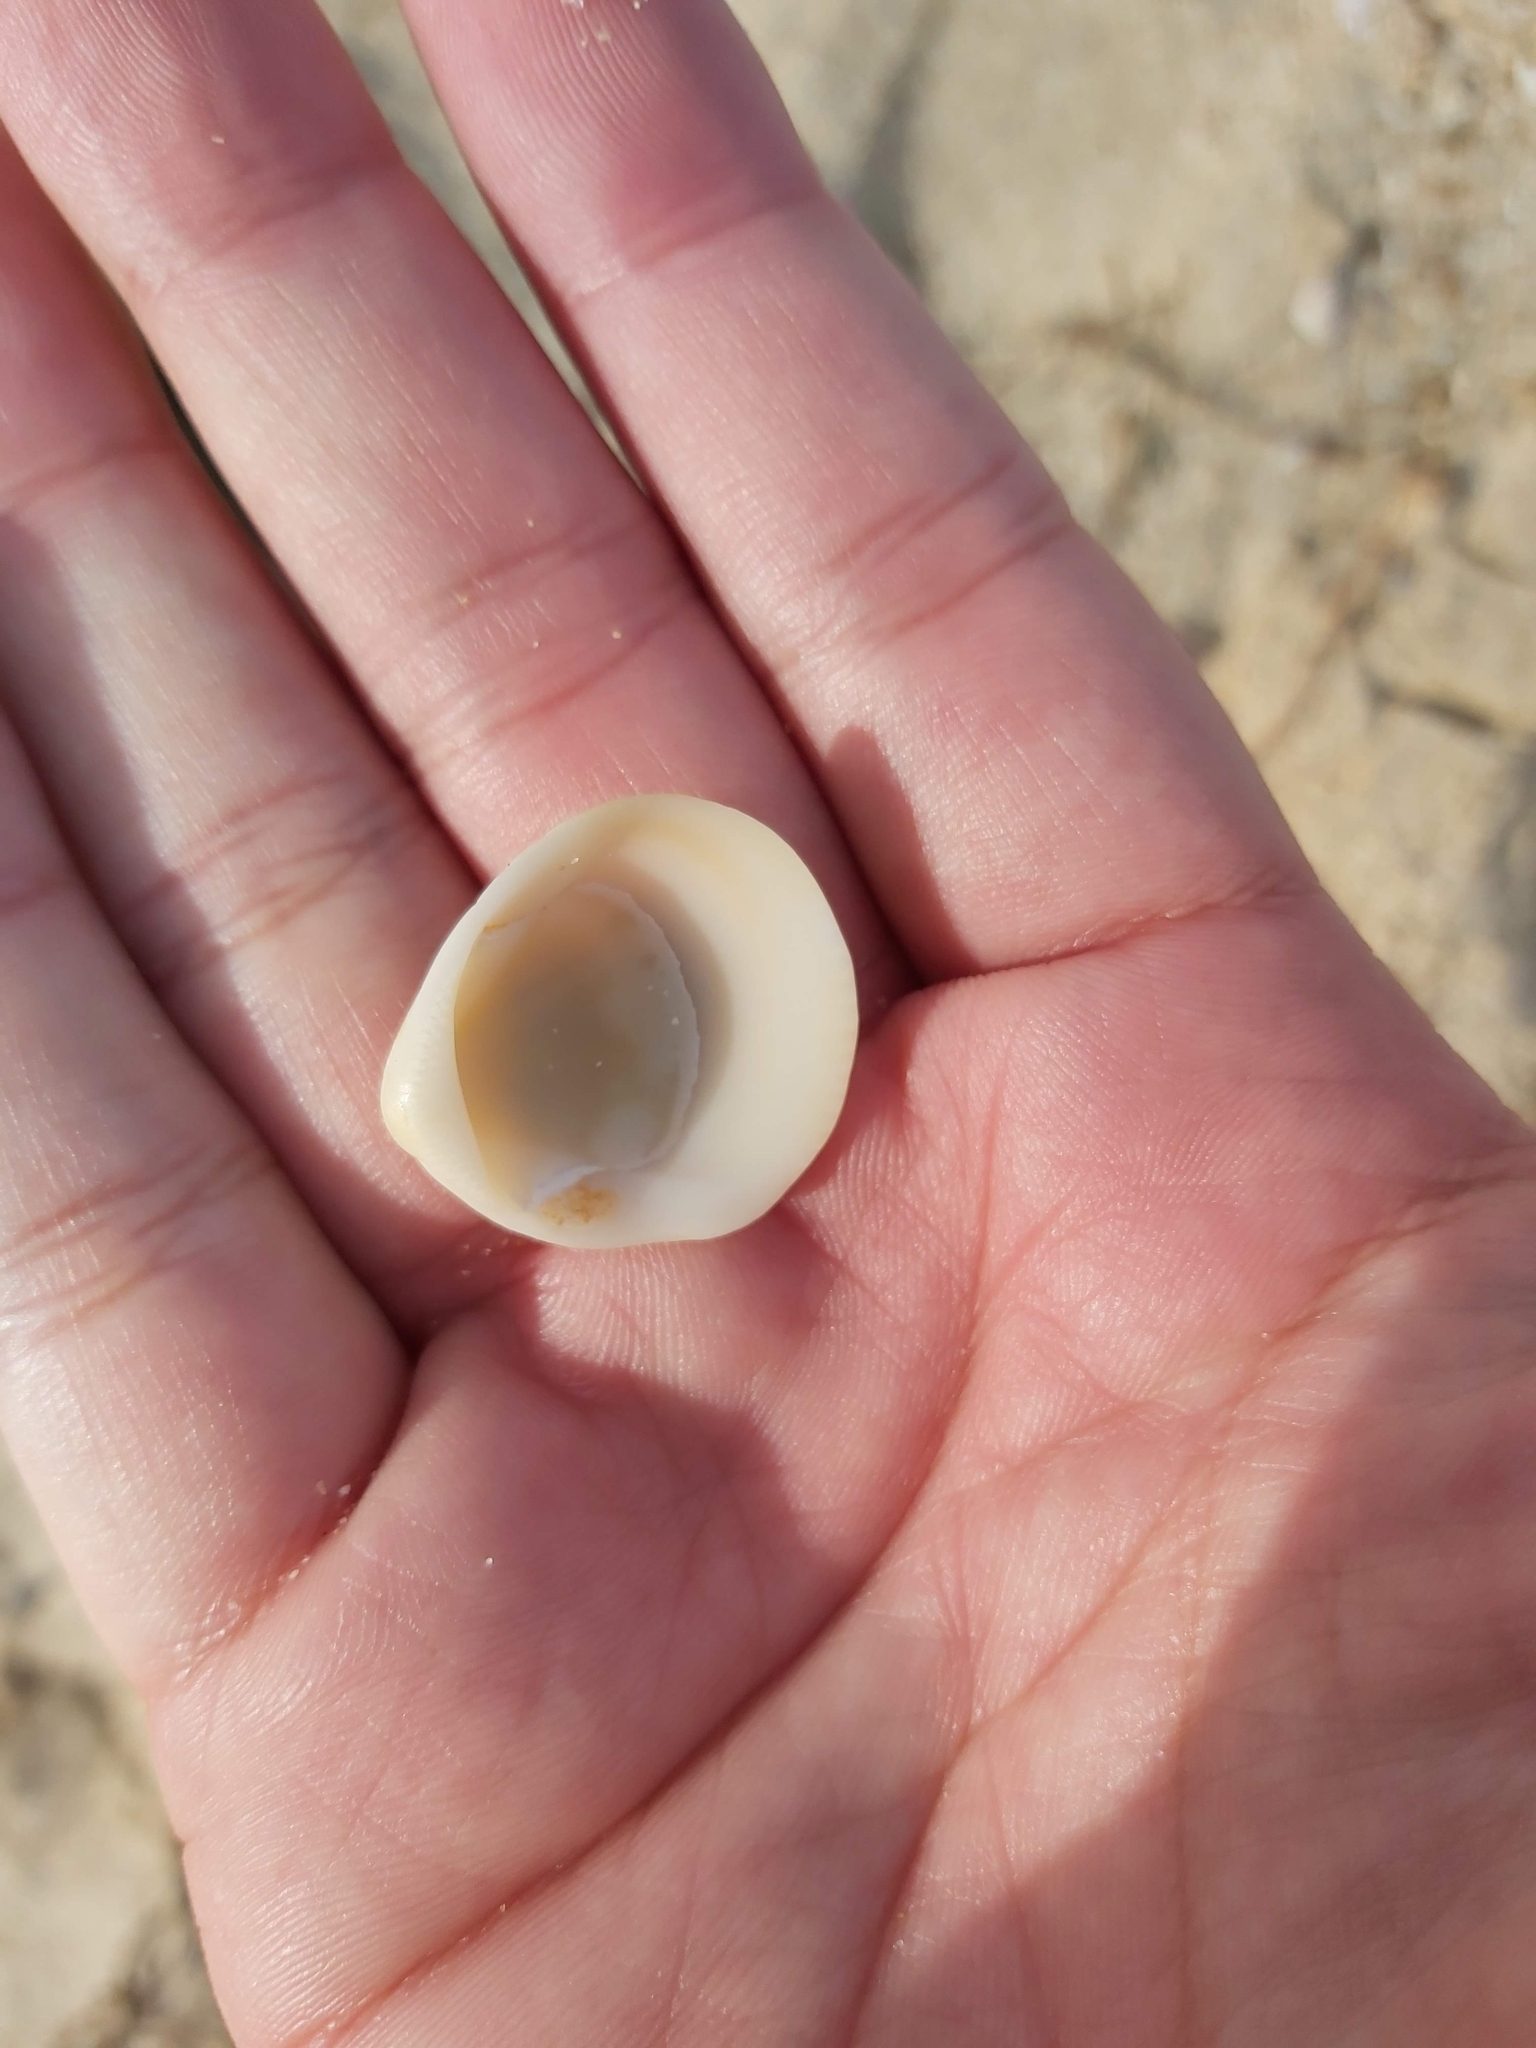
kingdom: Animalia
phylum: Mollusca
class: Bivalvia
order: Arcida
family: Glycymerididae
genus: Glycymeris
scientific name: Glycymeris grayana
